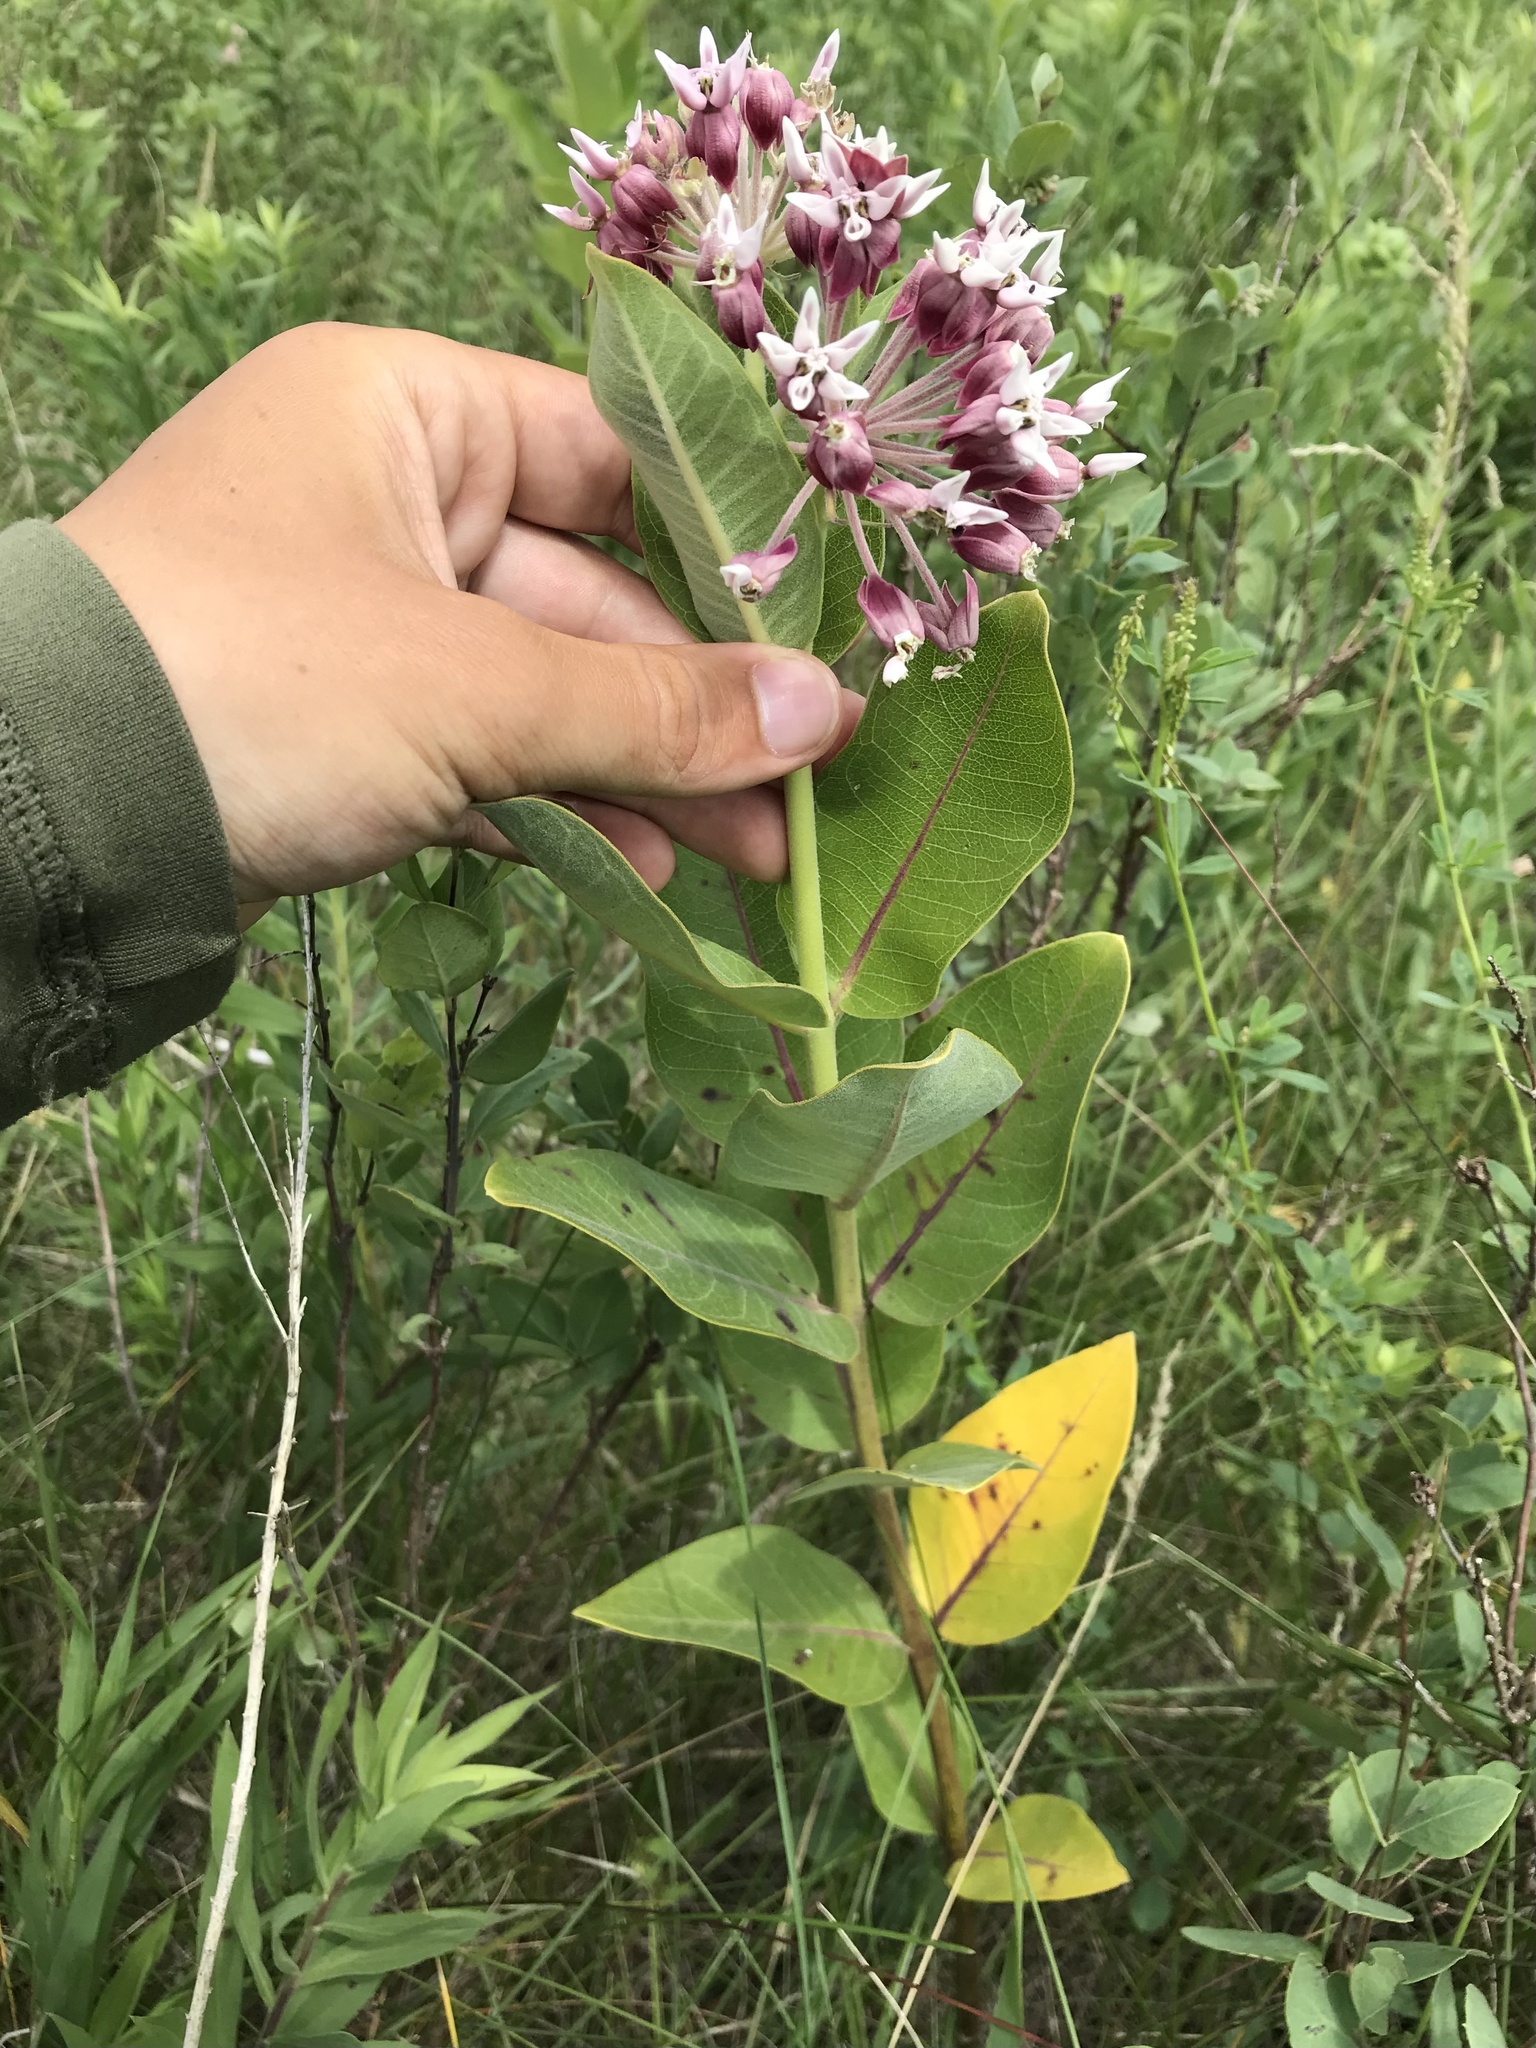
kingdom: Plantae
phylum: Tracheophyta
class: Magnoliopsida
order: Gentianales
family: Apocynaceae
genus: Asclepias
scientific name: Asclepias
